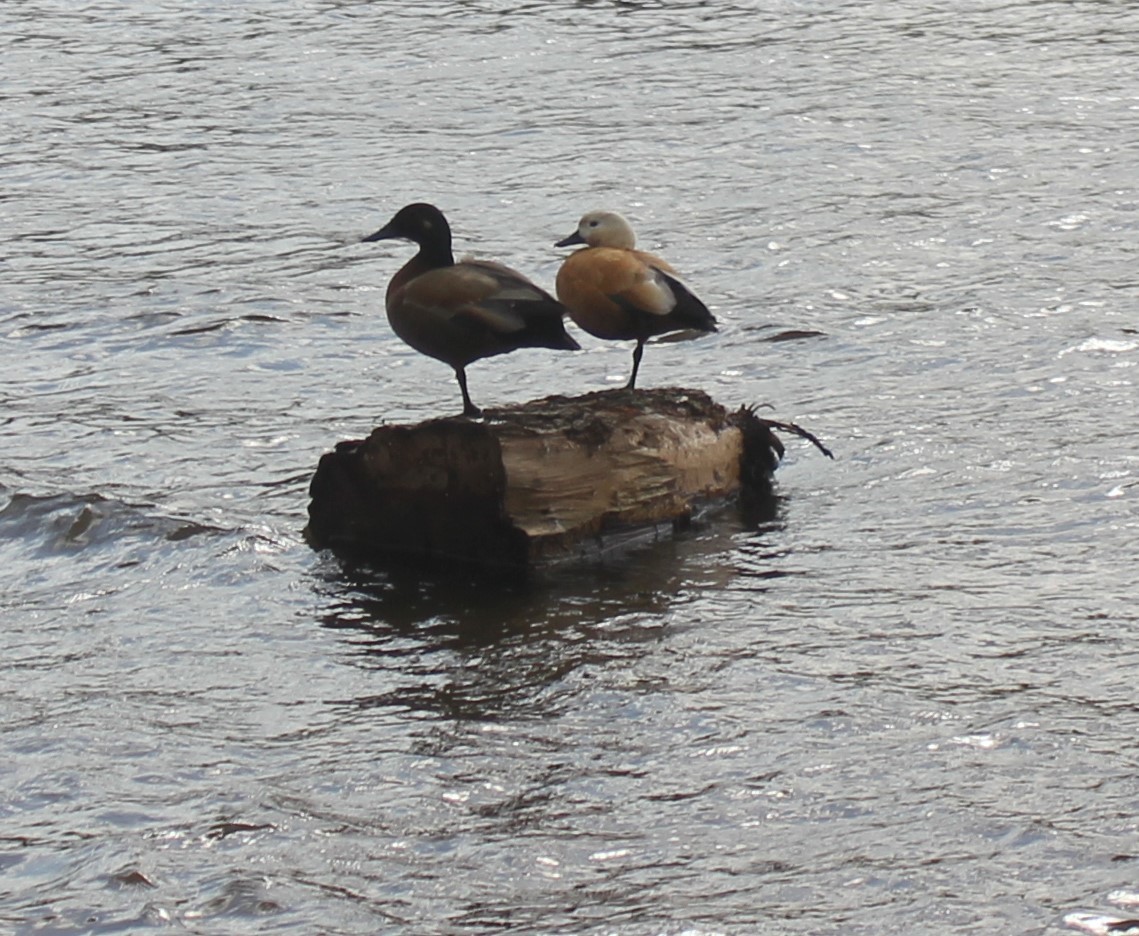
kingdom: Animalia
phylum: Chordata
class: Aves
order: Anseriformes
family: Anatidae
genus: Tadorna
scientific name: Tadorna ferruginea
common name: Ruddy shelduck
